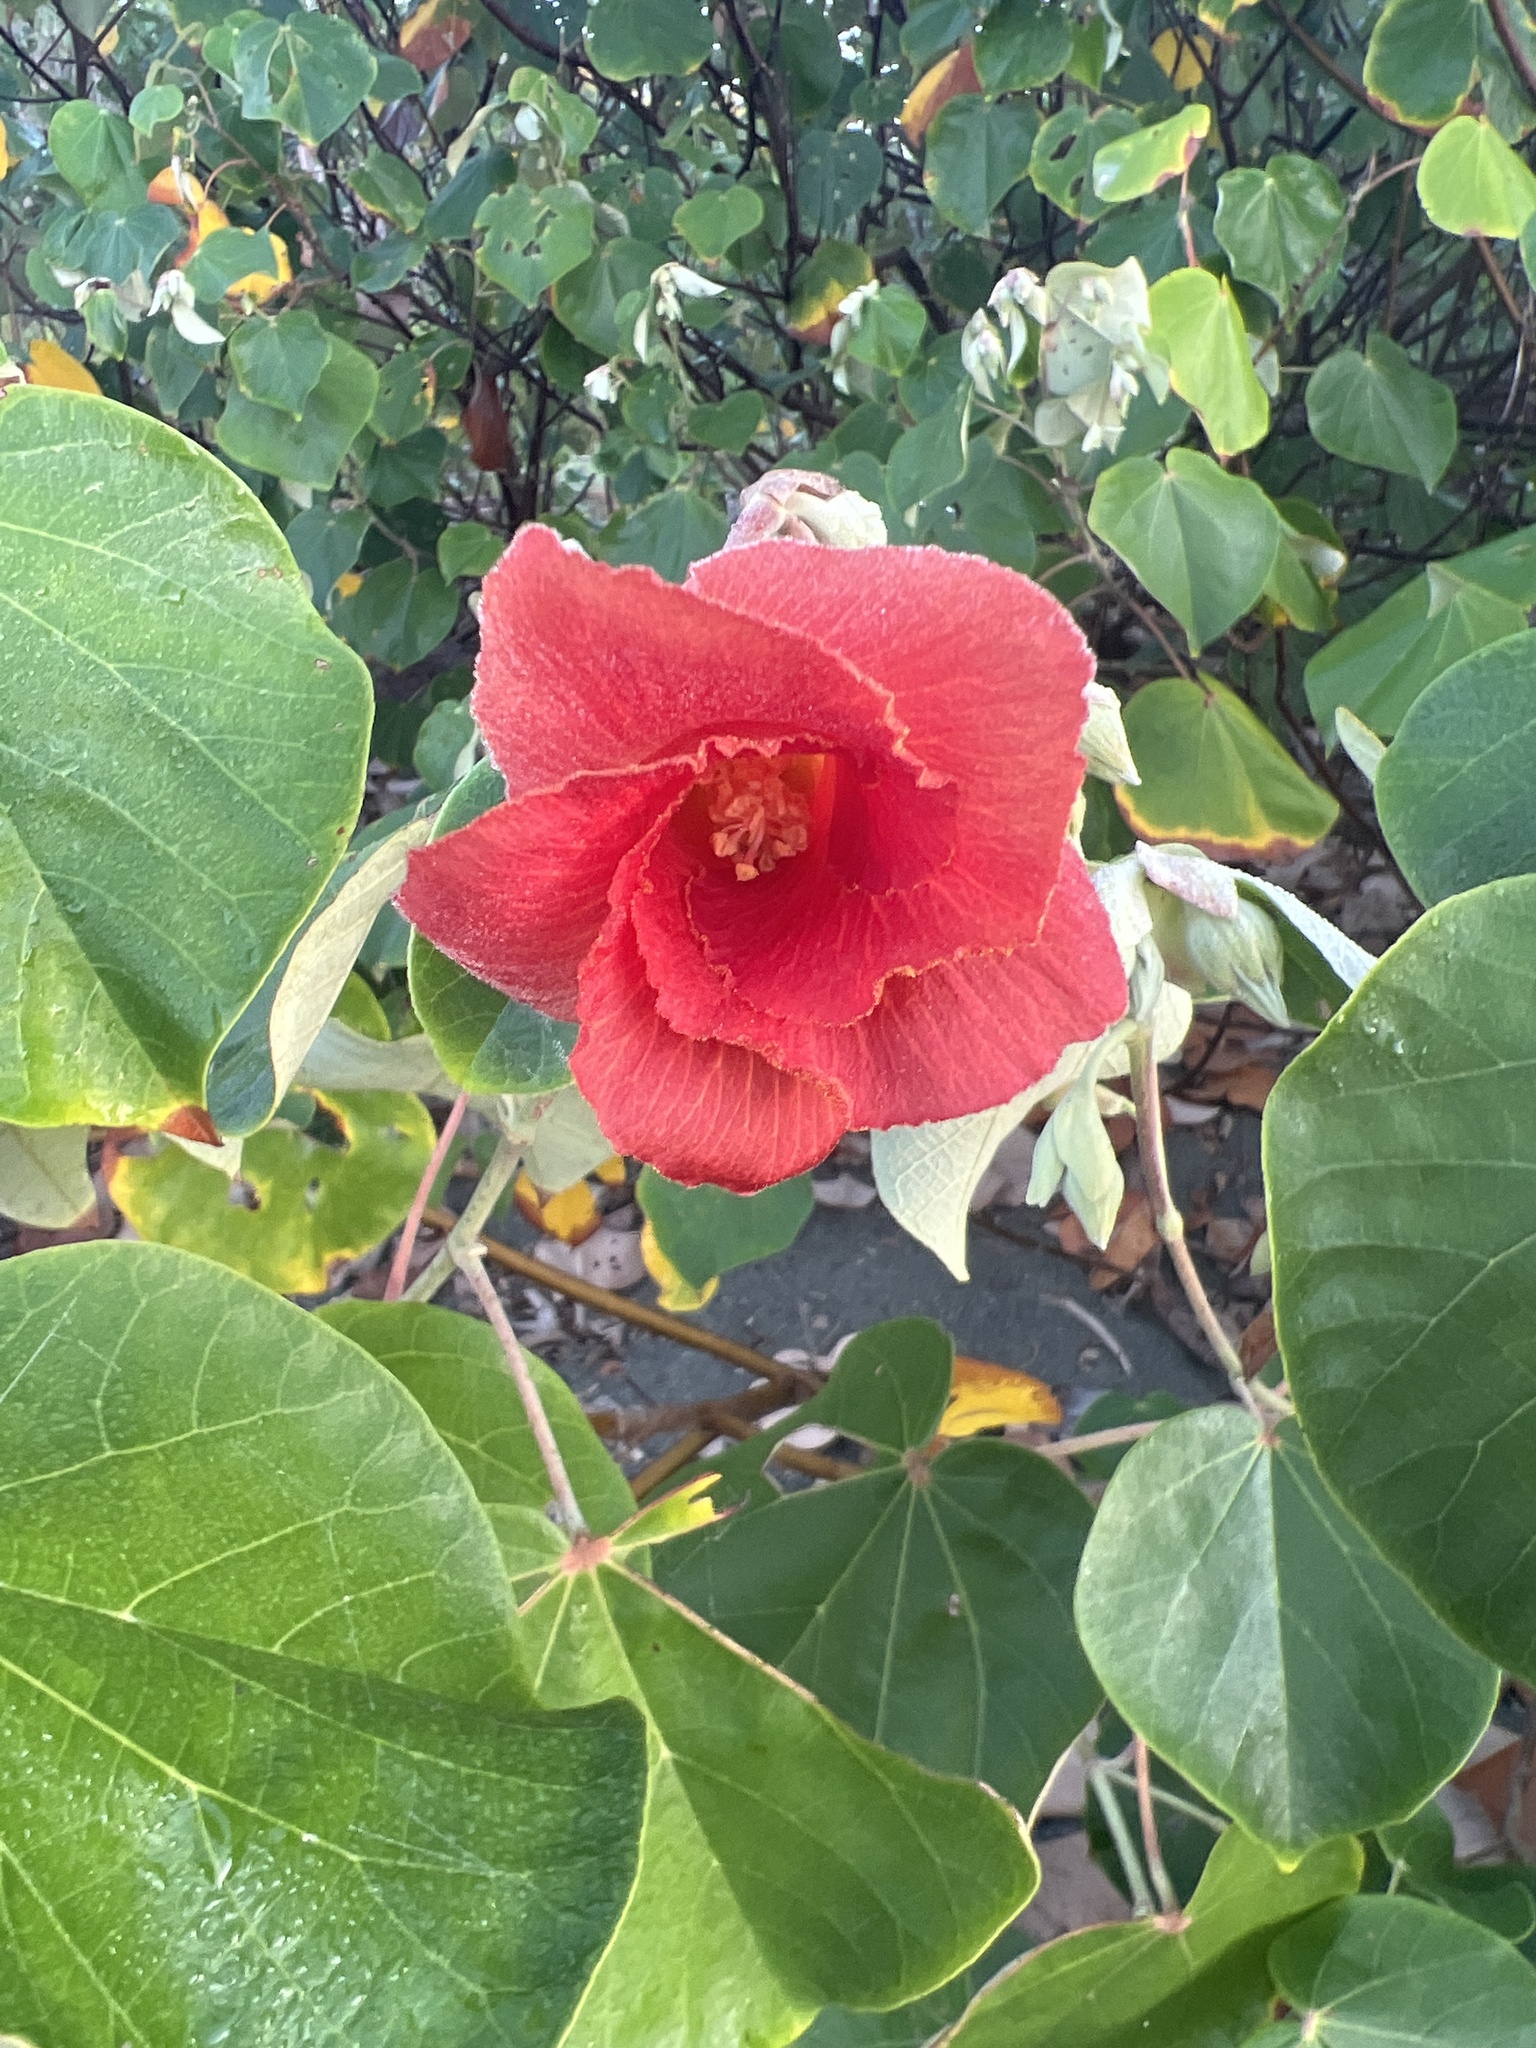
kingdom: Plantae
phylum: Tracheophyta
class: Magnoliopsida
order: Malvales
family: Malvaceae
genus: Talipariti
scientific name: Talipariti tiliaceum
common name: Sea hibiscus
